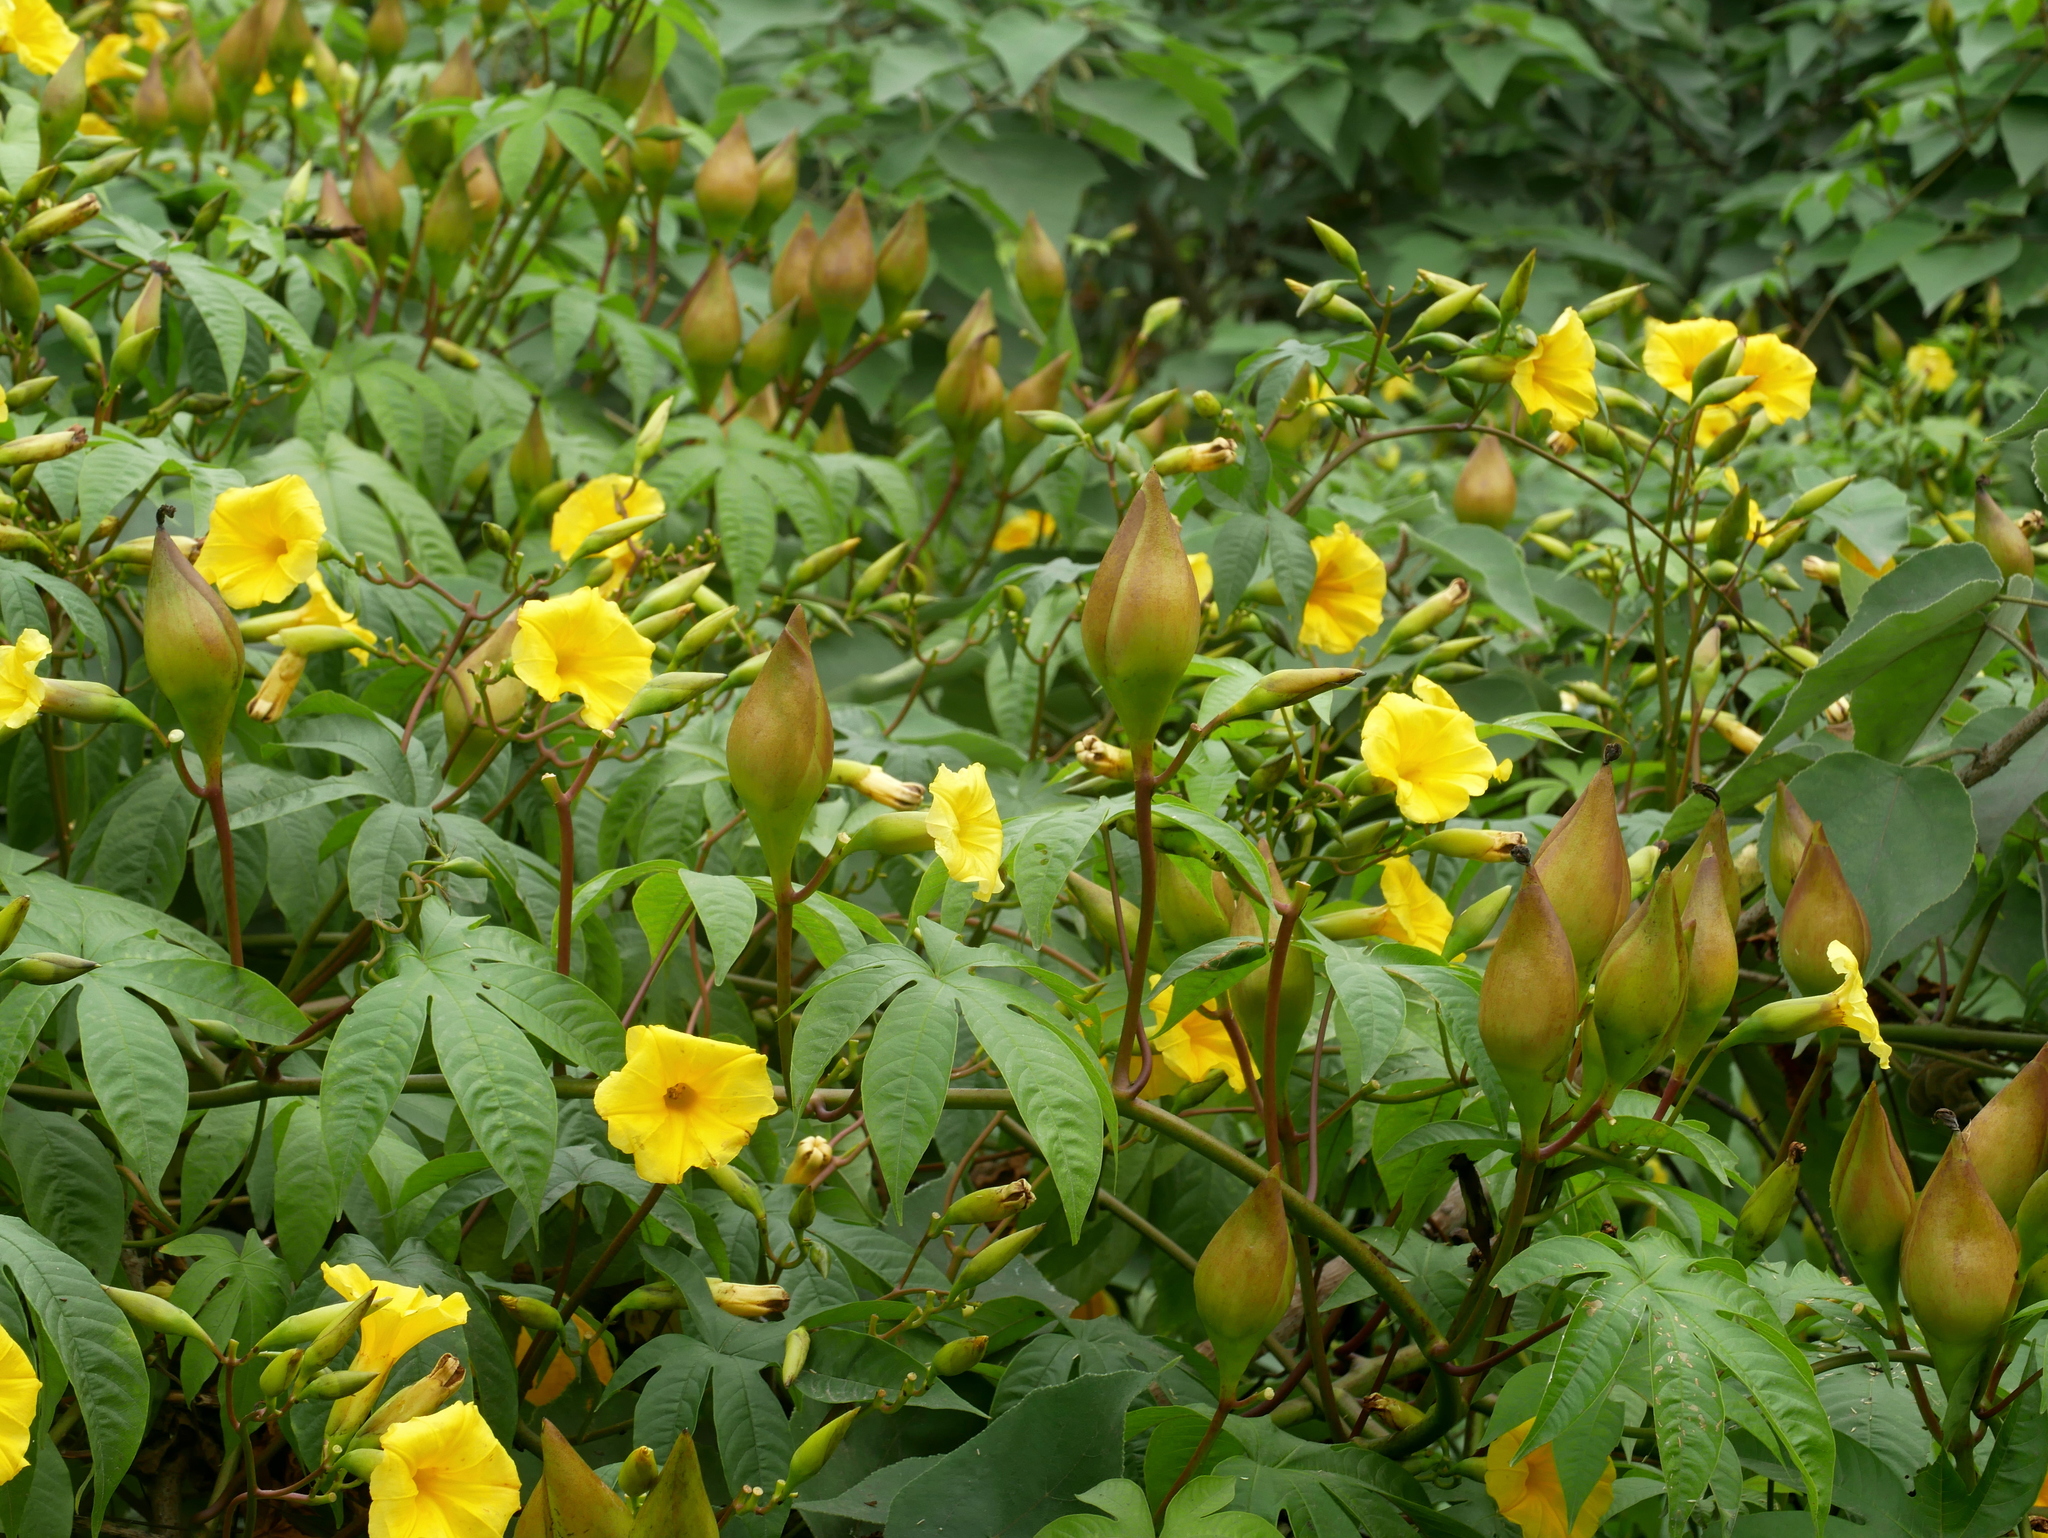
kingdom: Plantae
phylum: Tracheophyta
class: Magnoliopsida
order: Solanales
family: Convolvulaceae
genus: Distimake
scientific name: Distimake tuberosus
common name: Spanish arborvine
